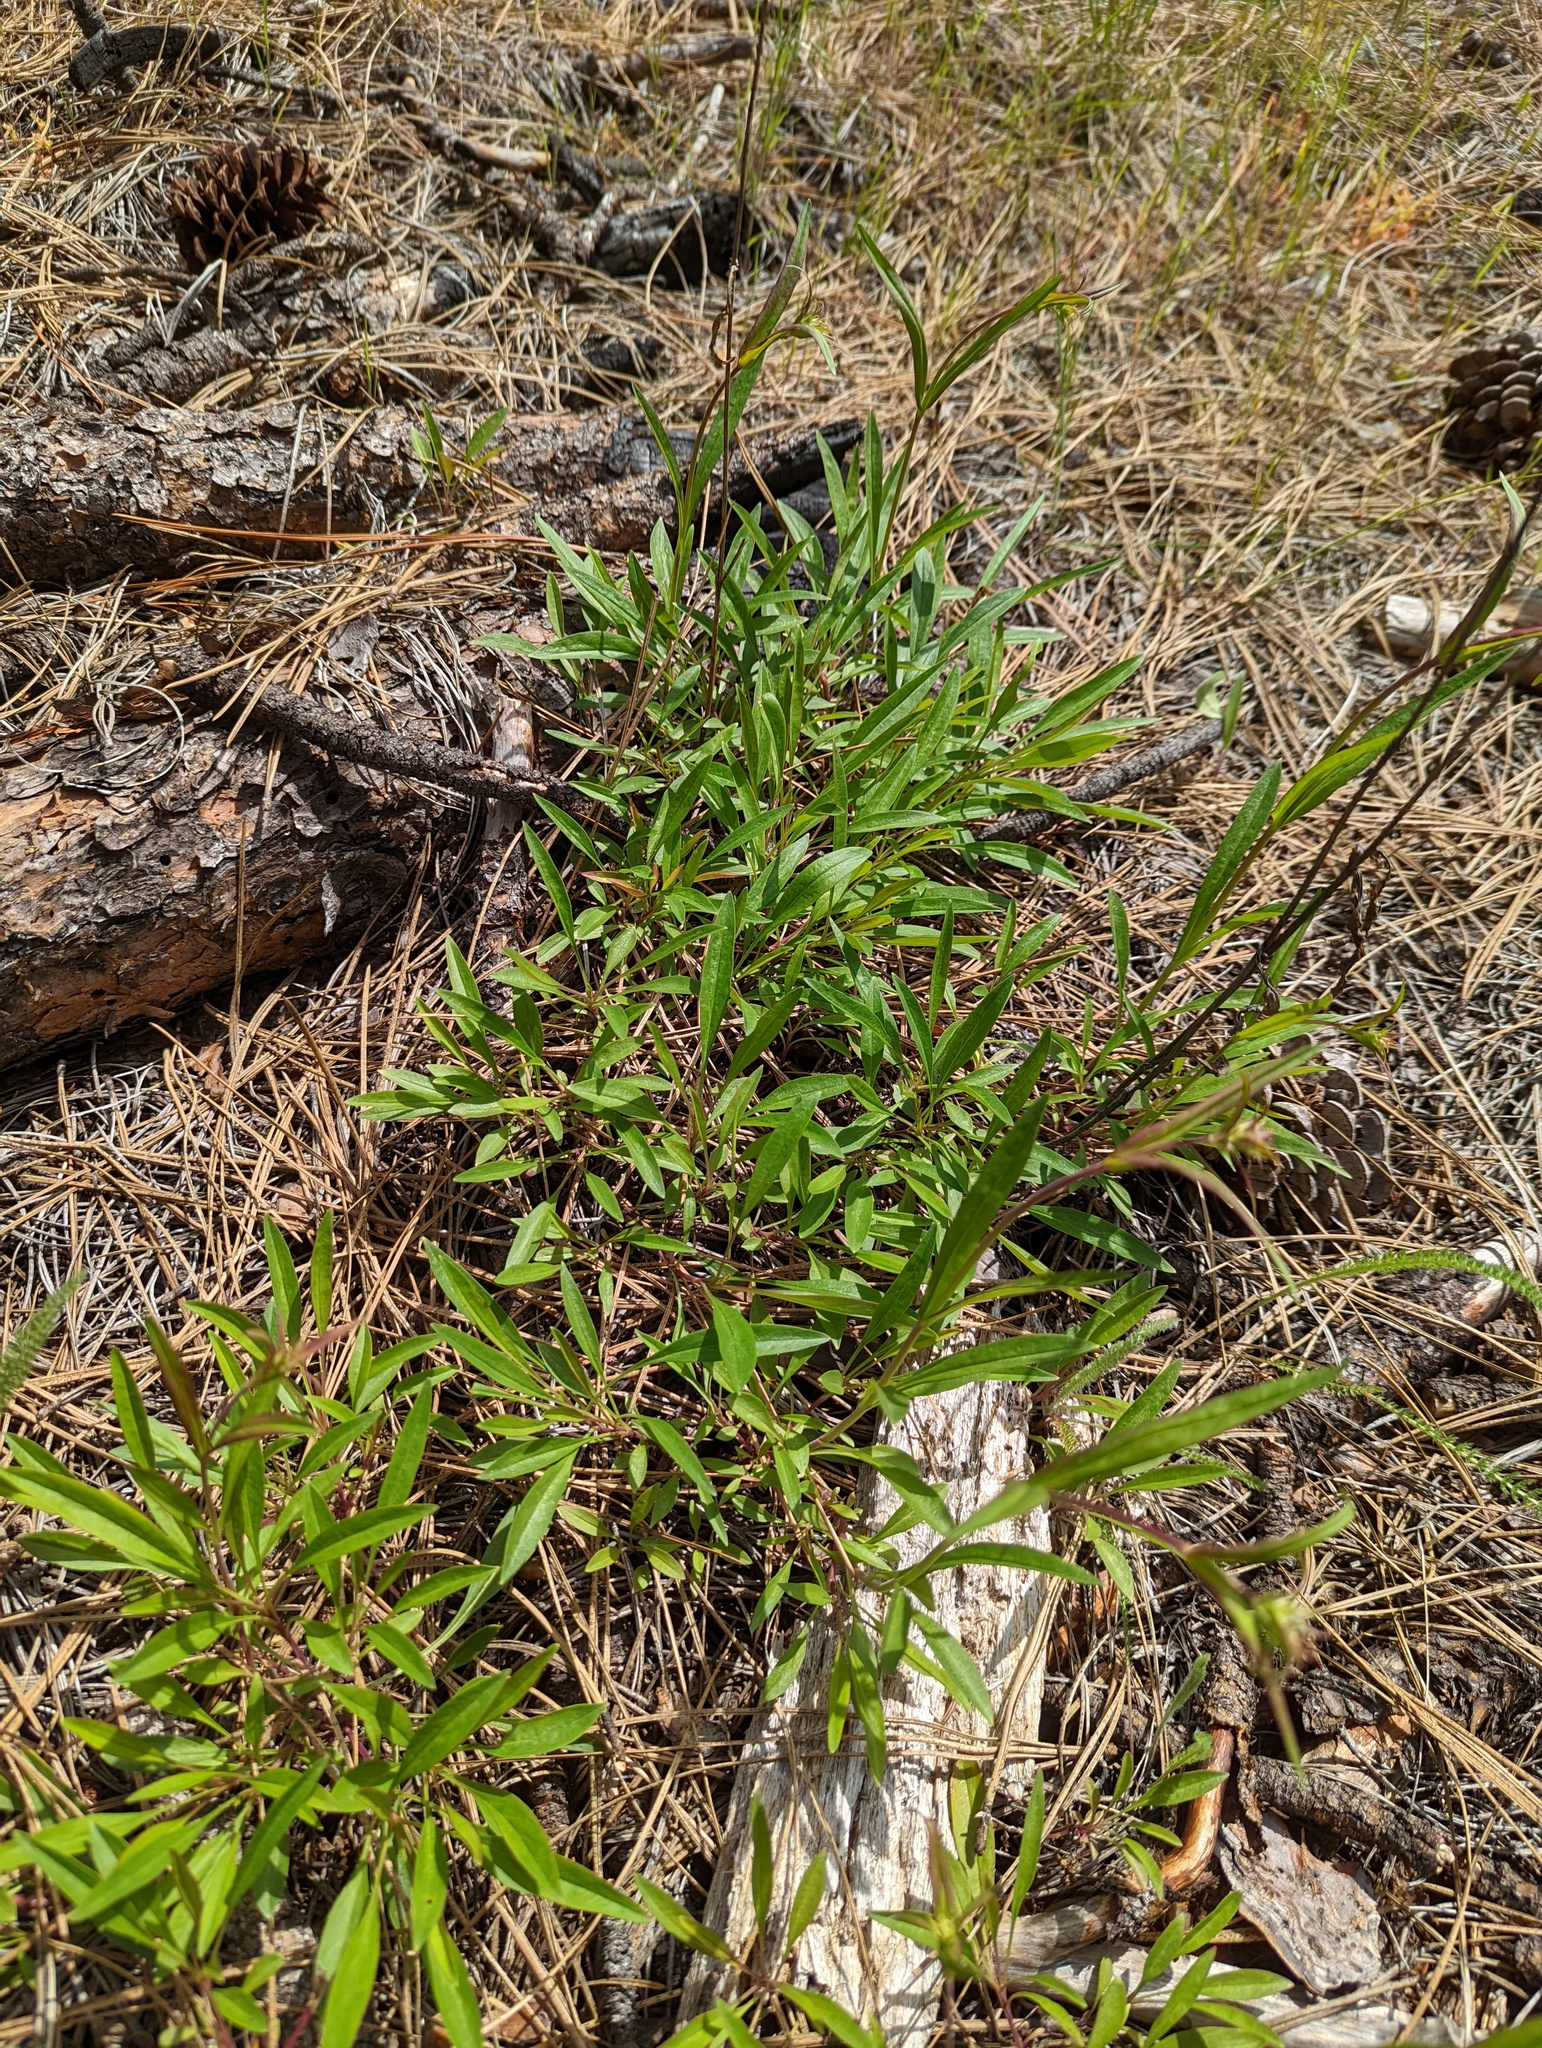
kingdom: Plantae
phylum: Tracheophyta
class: Magnoliopsida
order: Lamiales
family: Plantaginaceae
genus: Penstemon
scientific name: Penstemon fruticosus
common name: Bush penstemon
